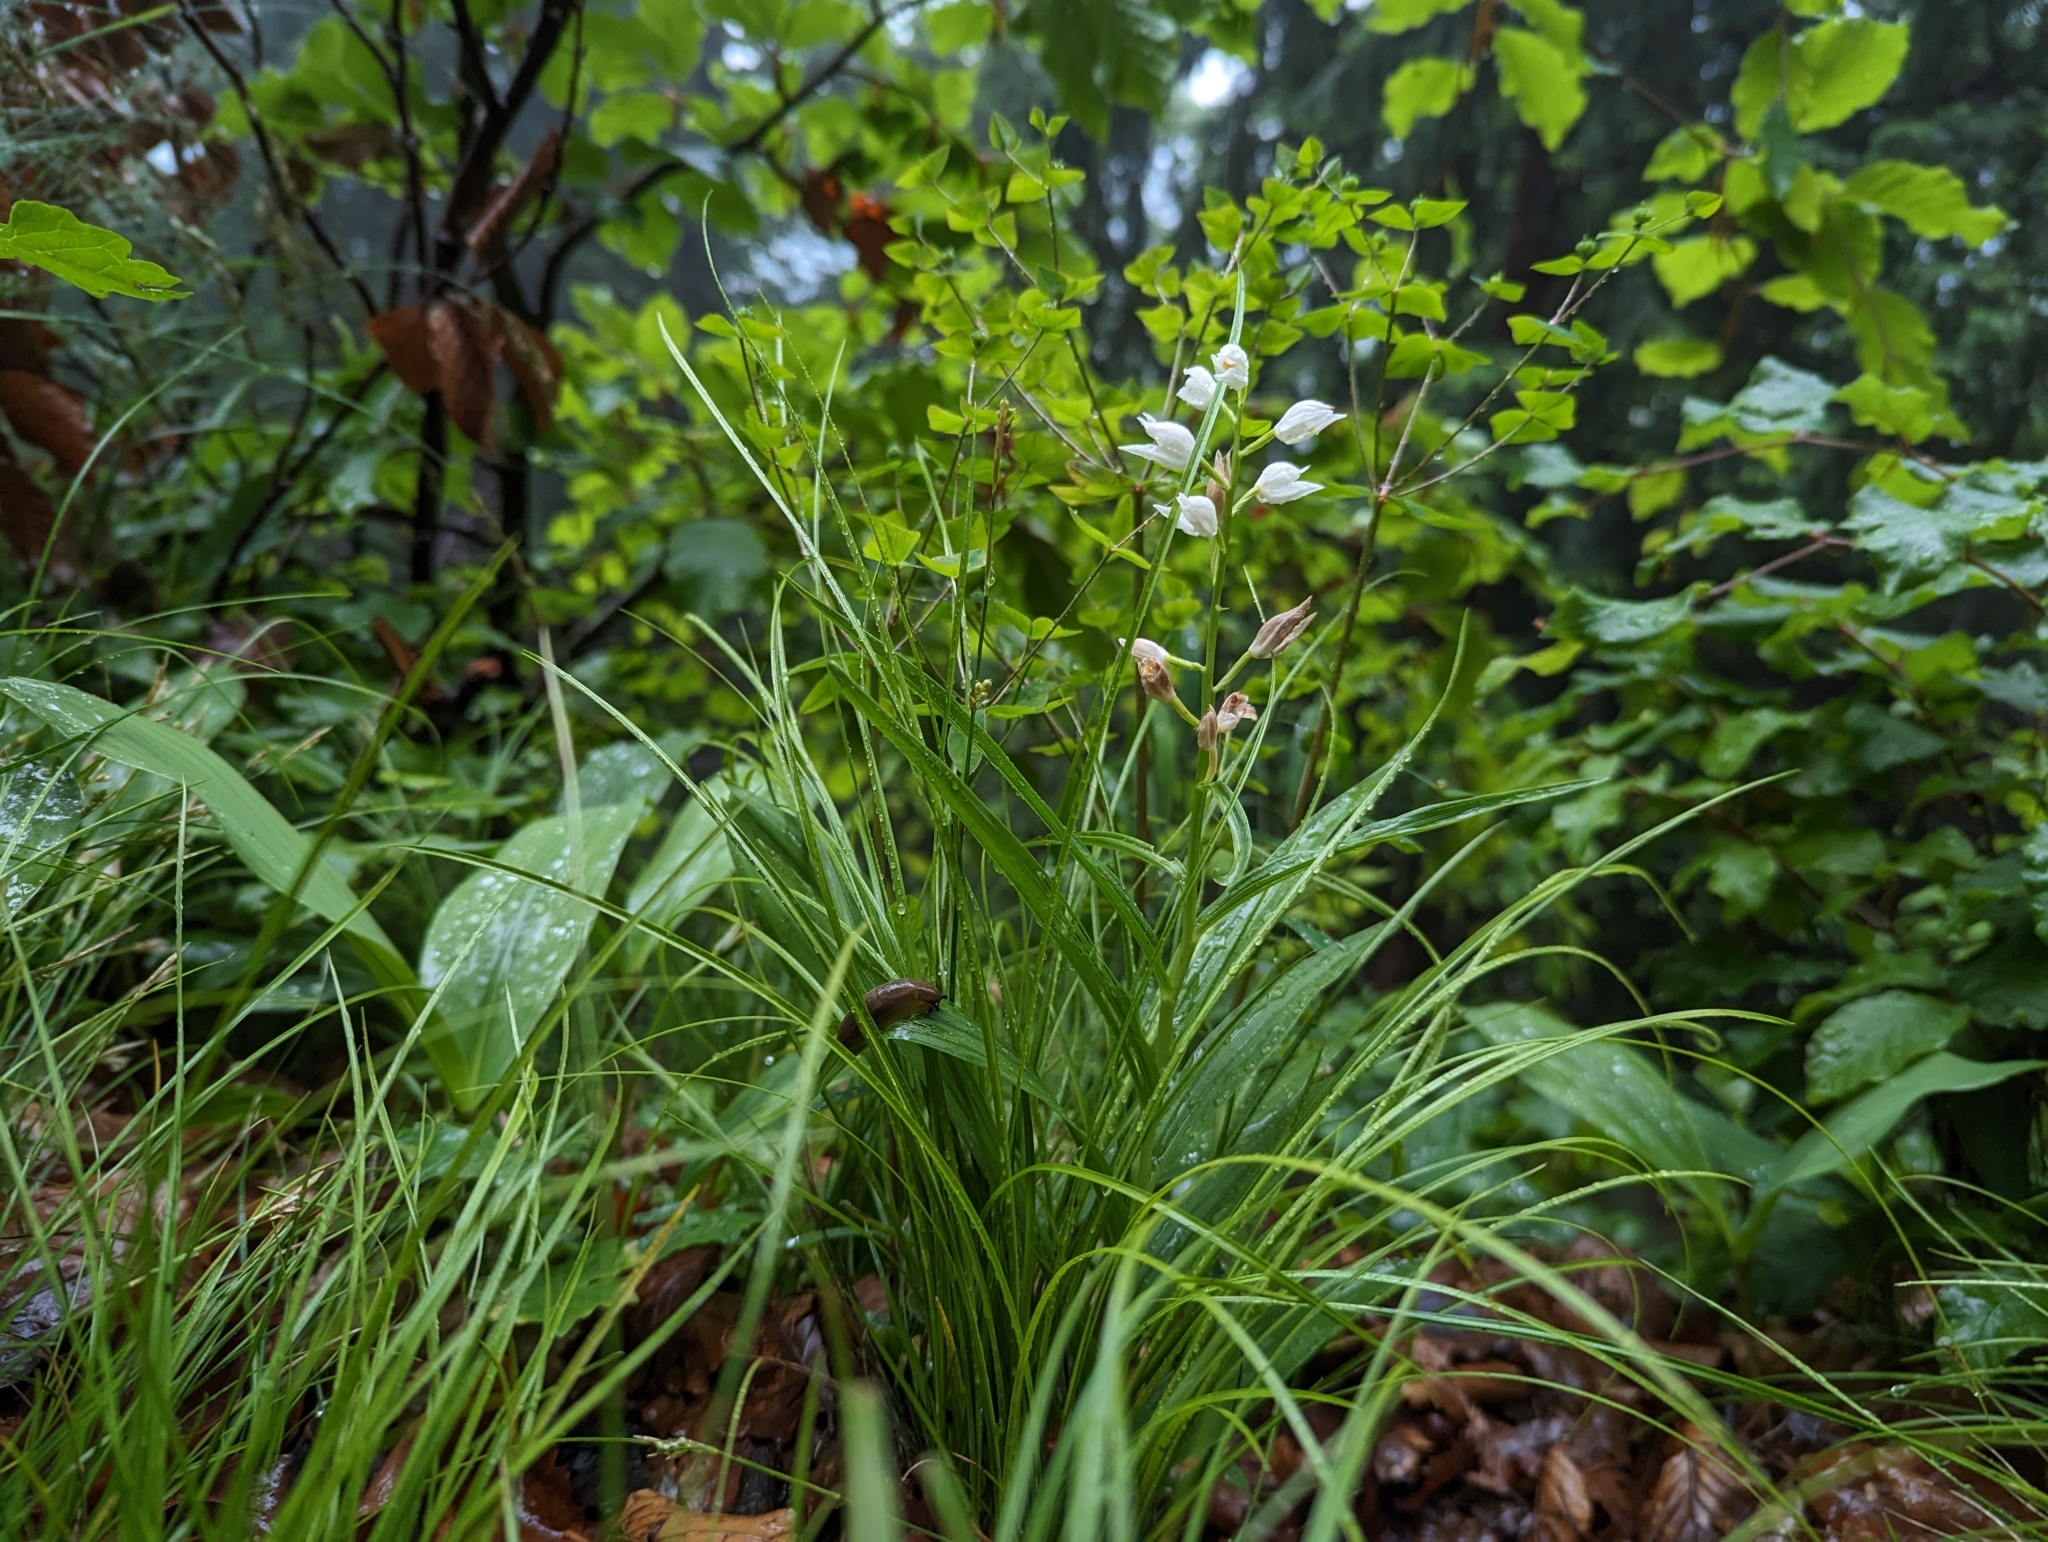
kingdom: Plantae
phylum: Tracheophyta
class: Liliopsida
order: Asparagales
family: Orchidaceae
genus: Cephalanthera
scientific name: Cephalanthera longifolia
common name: Narrow-leaved helleborine
